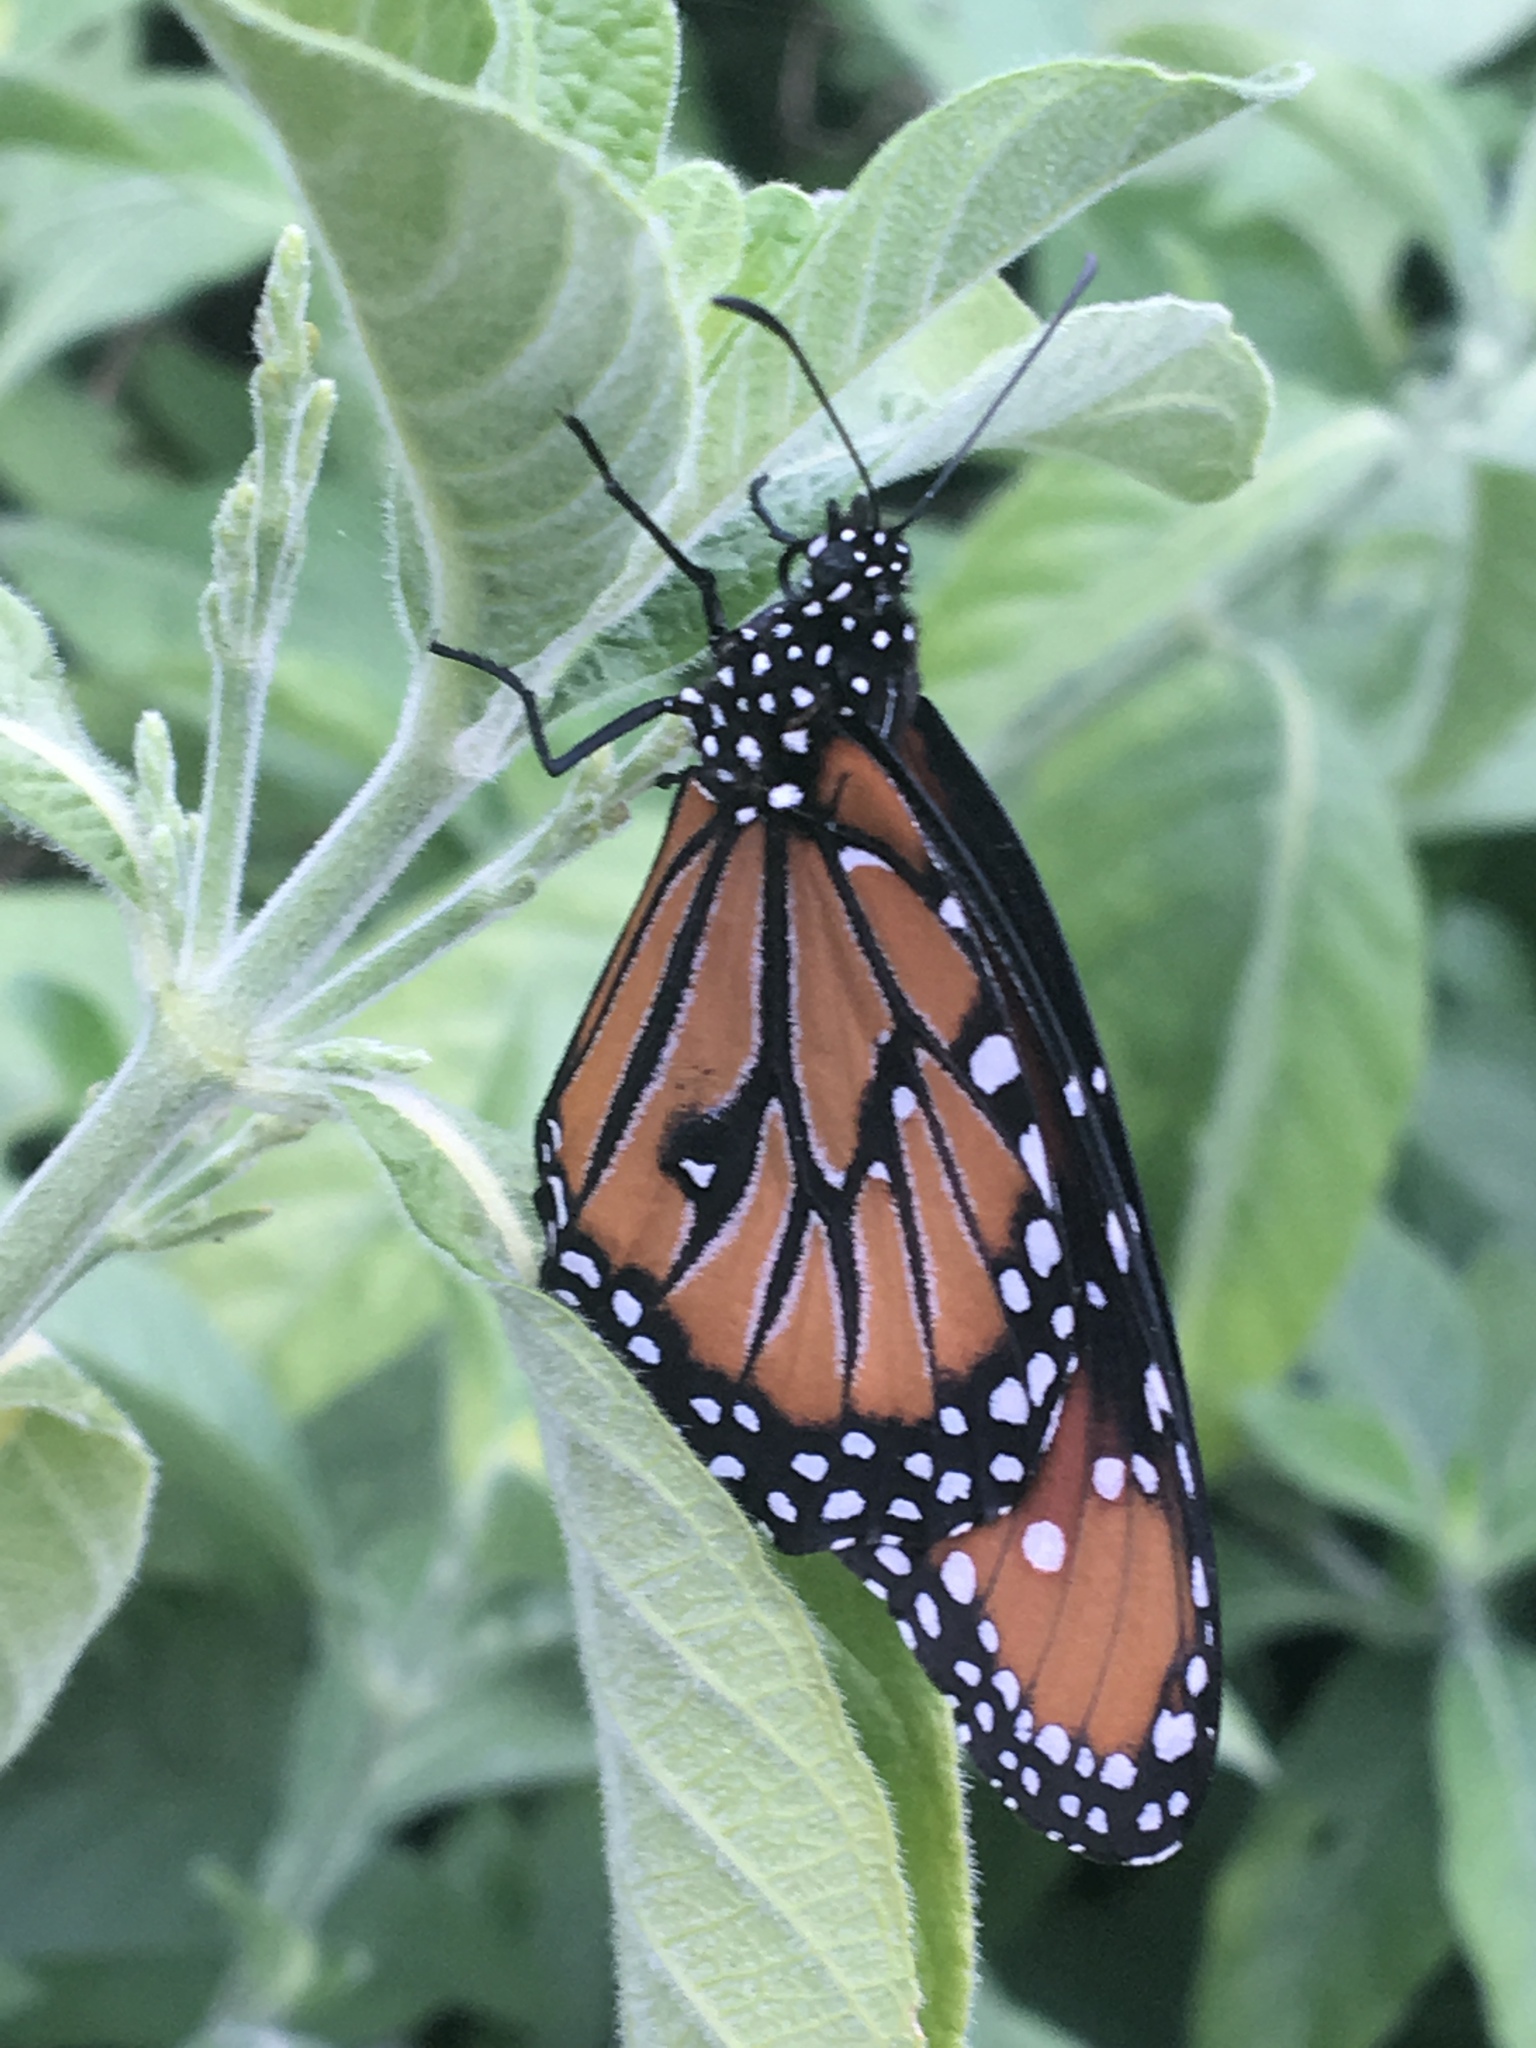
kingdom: Animalia
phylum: Arthropoda
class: Insecta
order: Lepidoptera
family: Nymphalidae
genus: Danaus
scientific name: Danaus gilippus
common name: Queen
